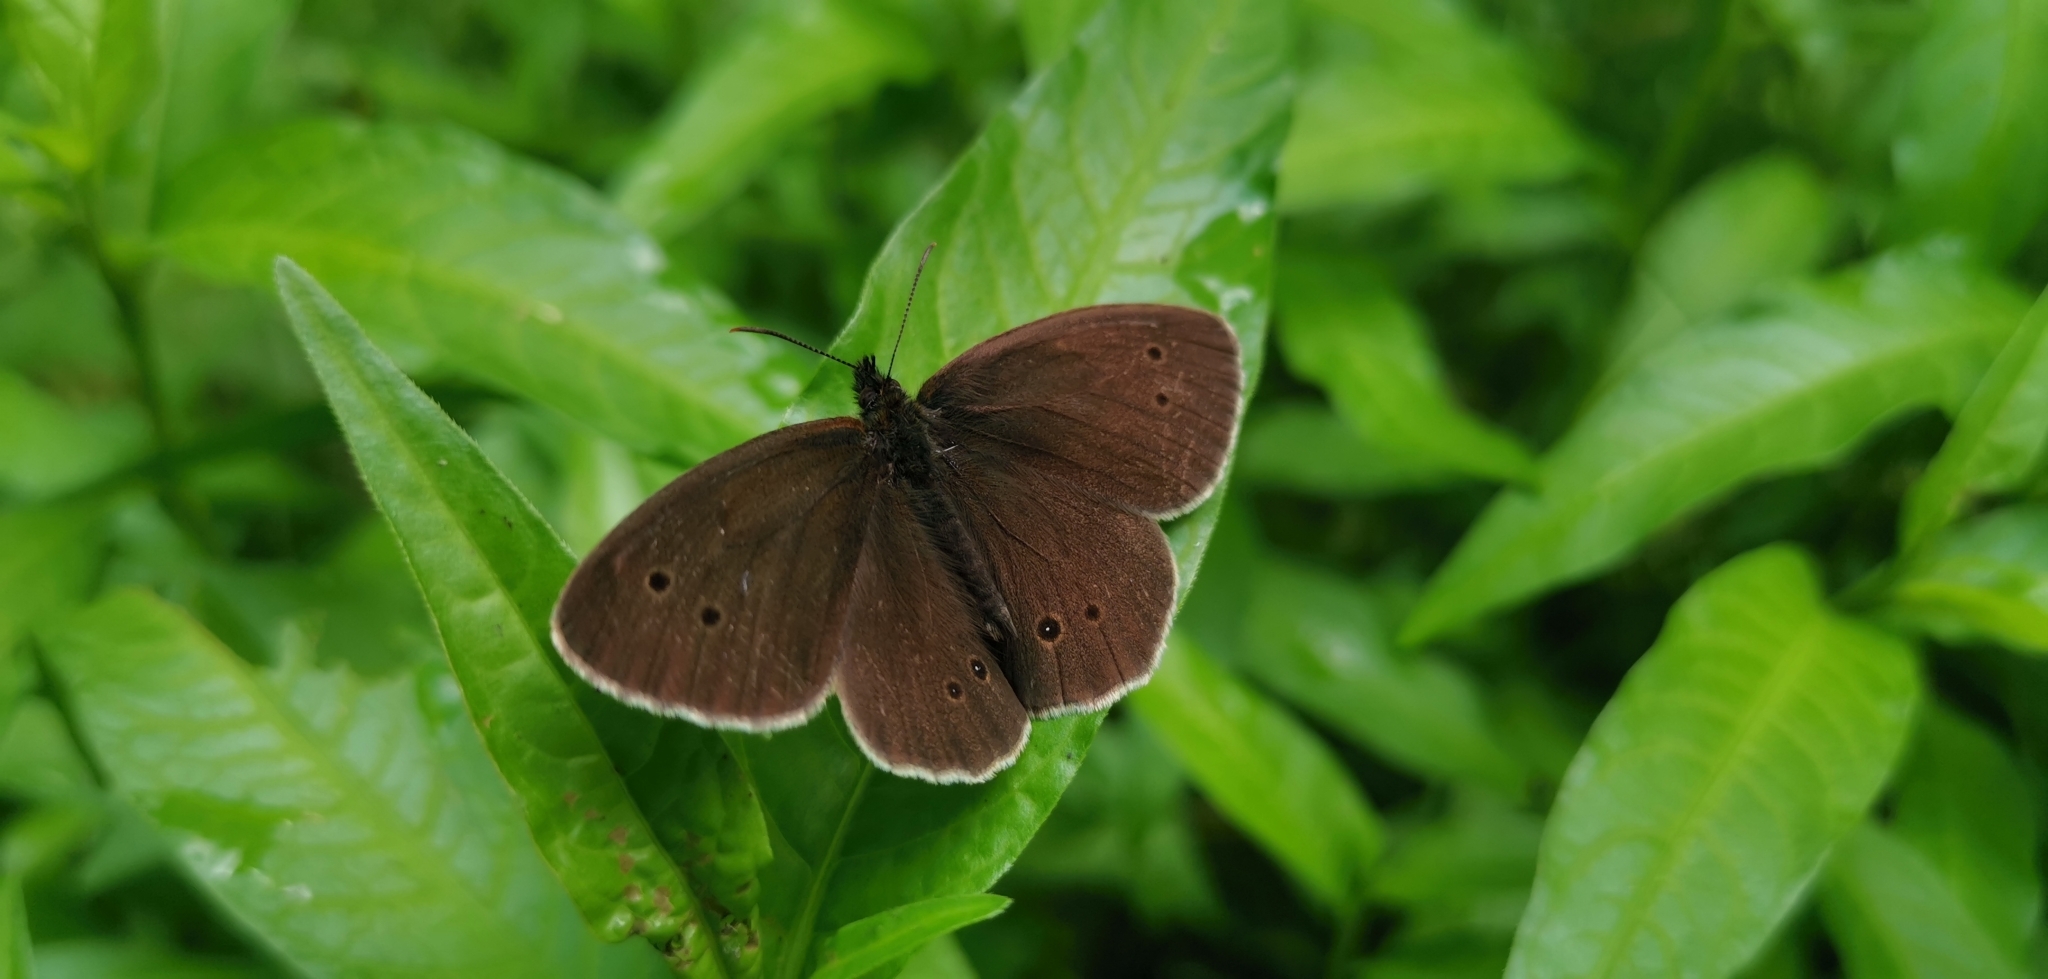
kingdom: Animalia
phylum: Arthropoda
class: Insecta
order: Lepidoptera
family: Nymphalidae
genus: Aphantopus
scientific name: Aphantopus hyperantus
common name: Ringlet
